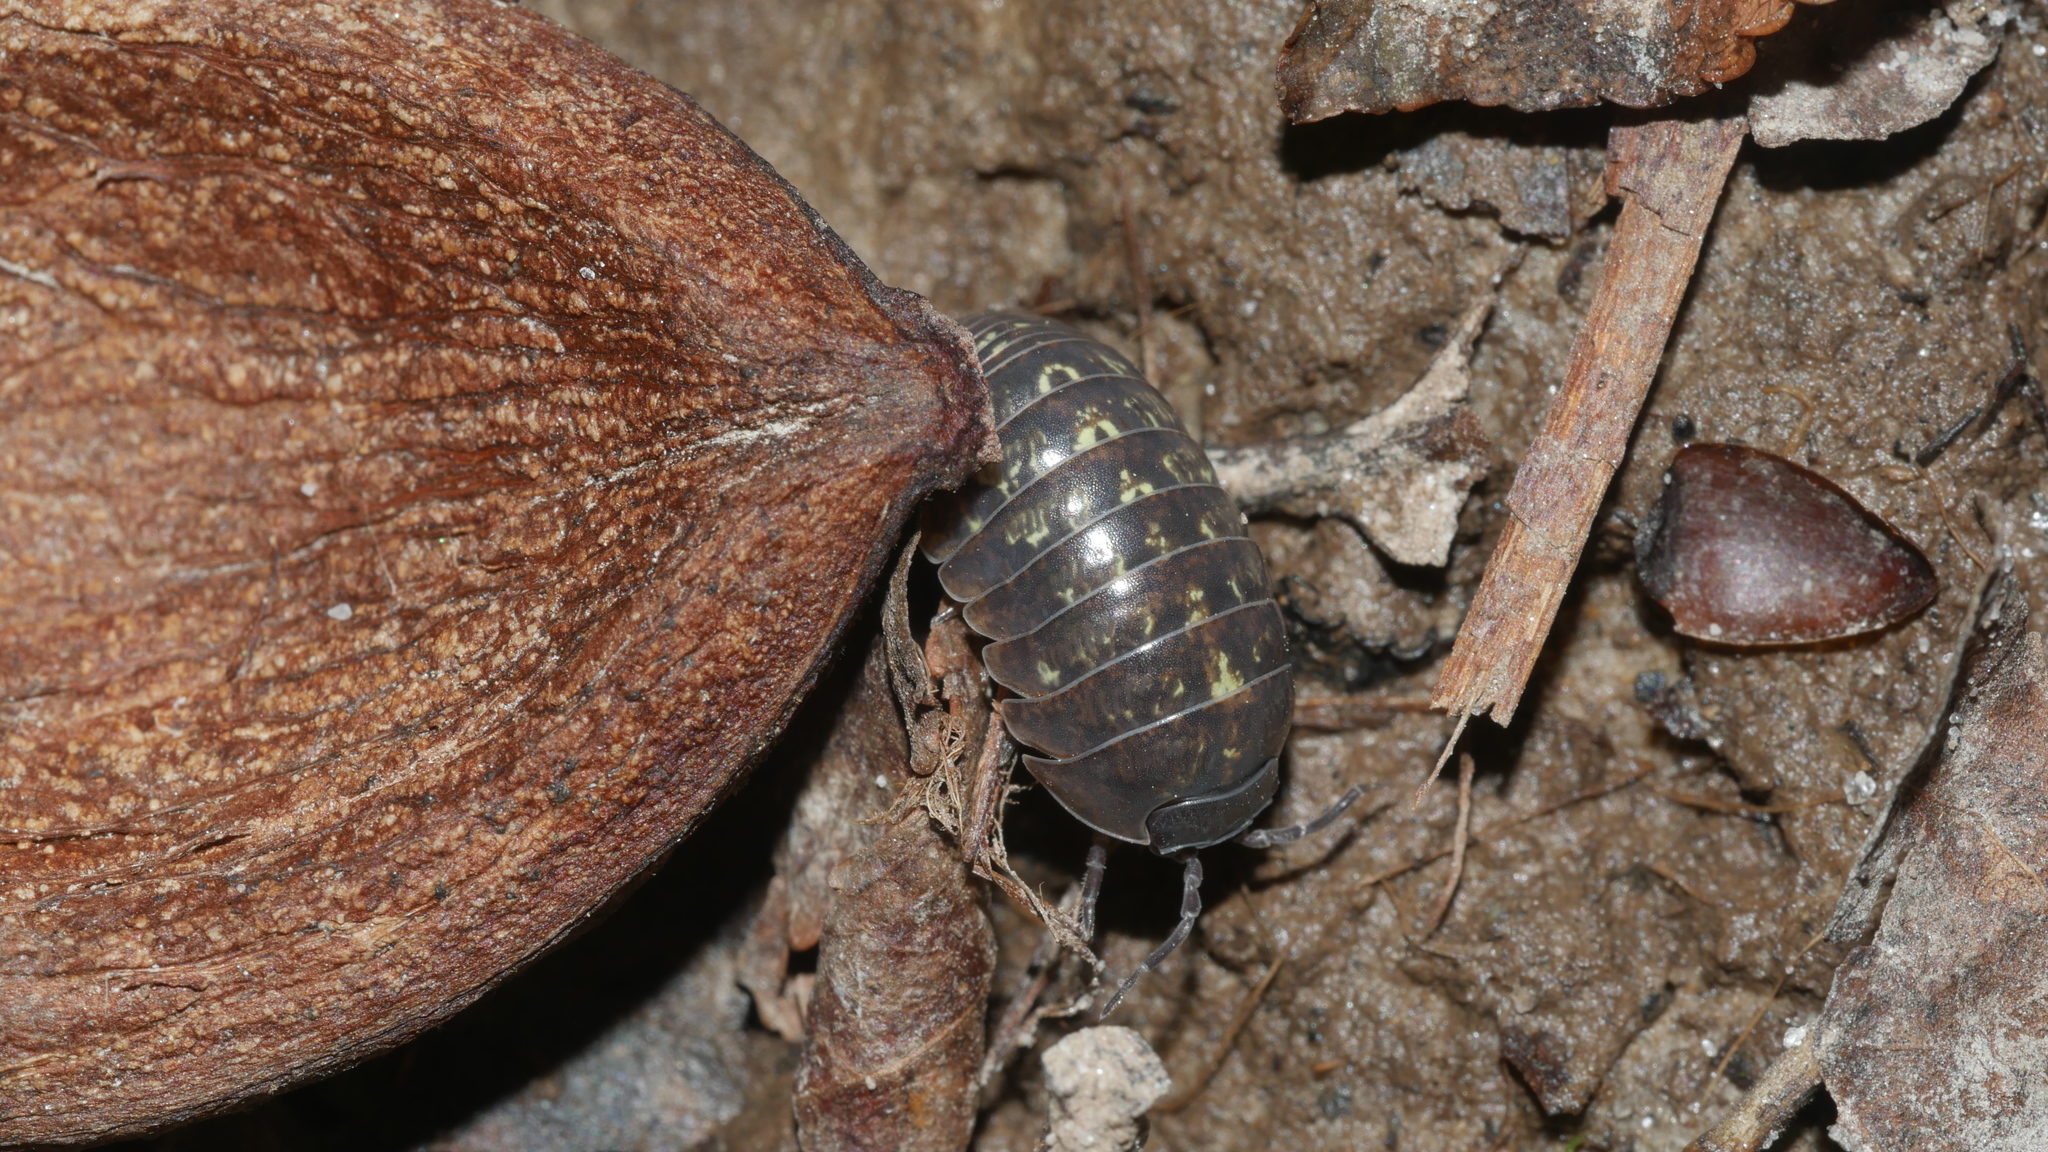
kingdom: Animalia
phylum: Arthropoda
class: Malacostraca
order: Isopoda
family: Armadillidiidae
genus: Armadillidium
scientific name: Armadillidium vulgare
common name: Common pill woodlouse
